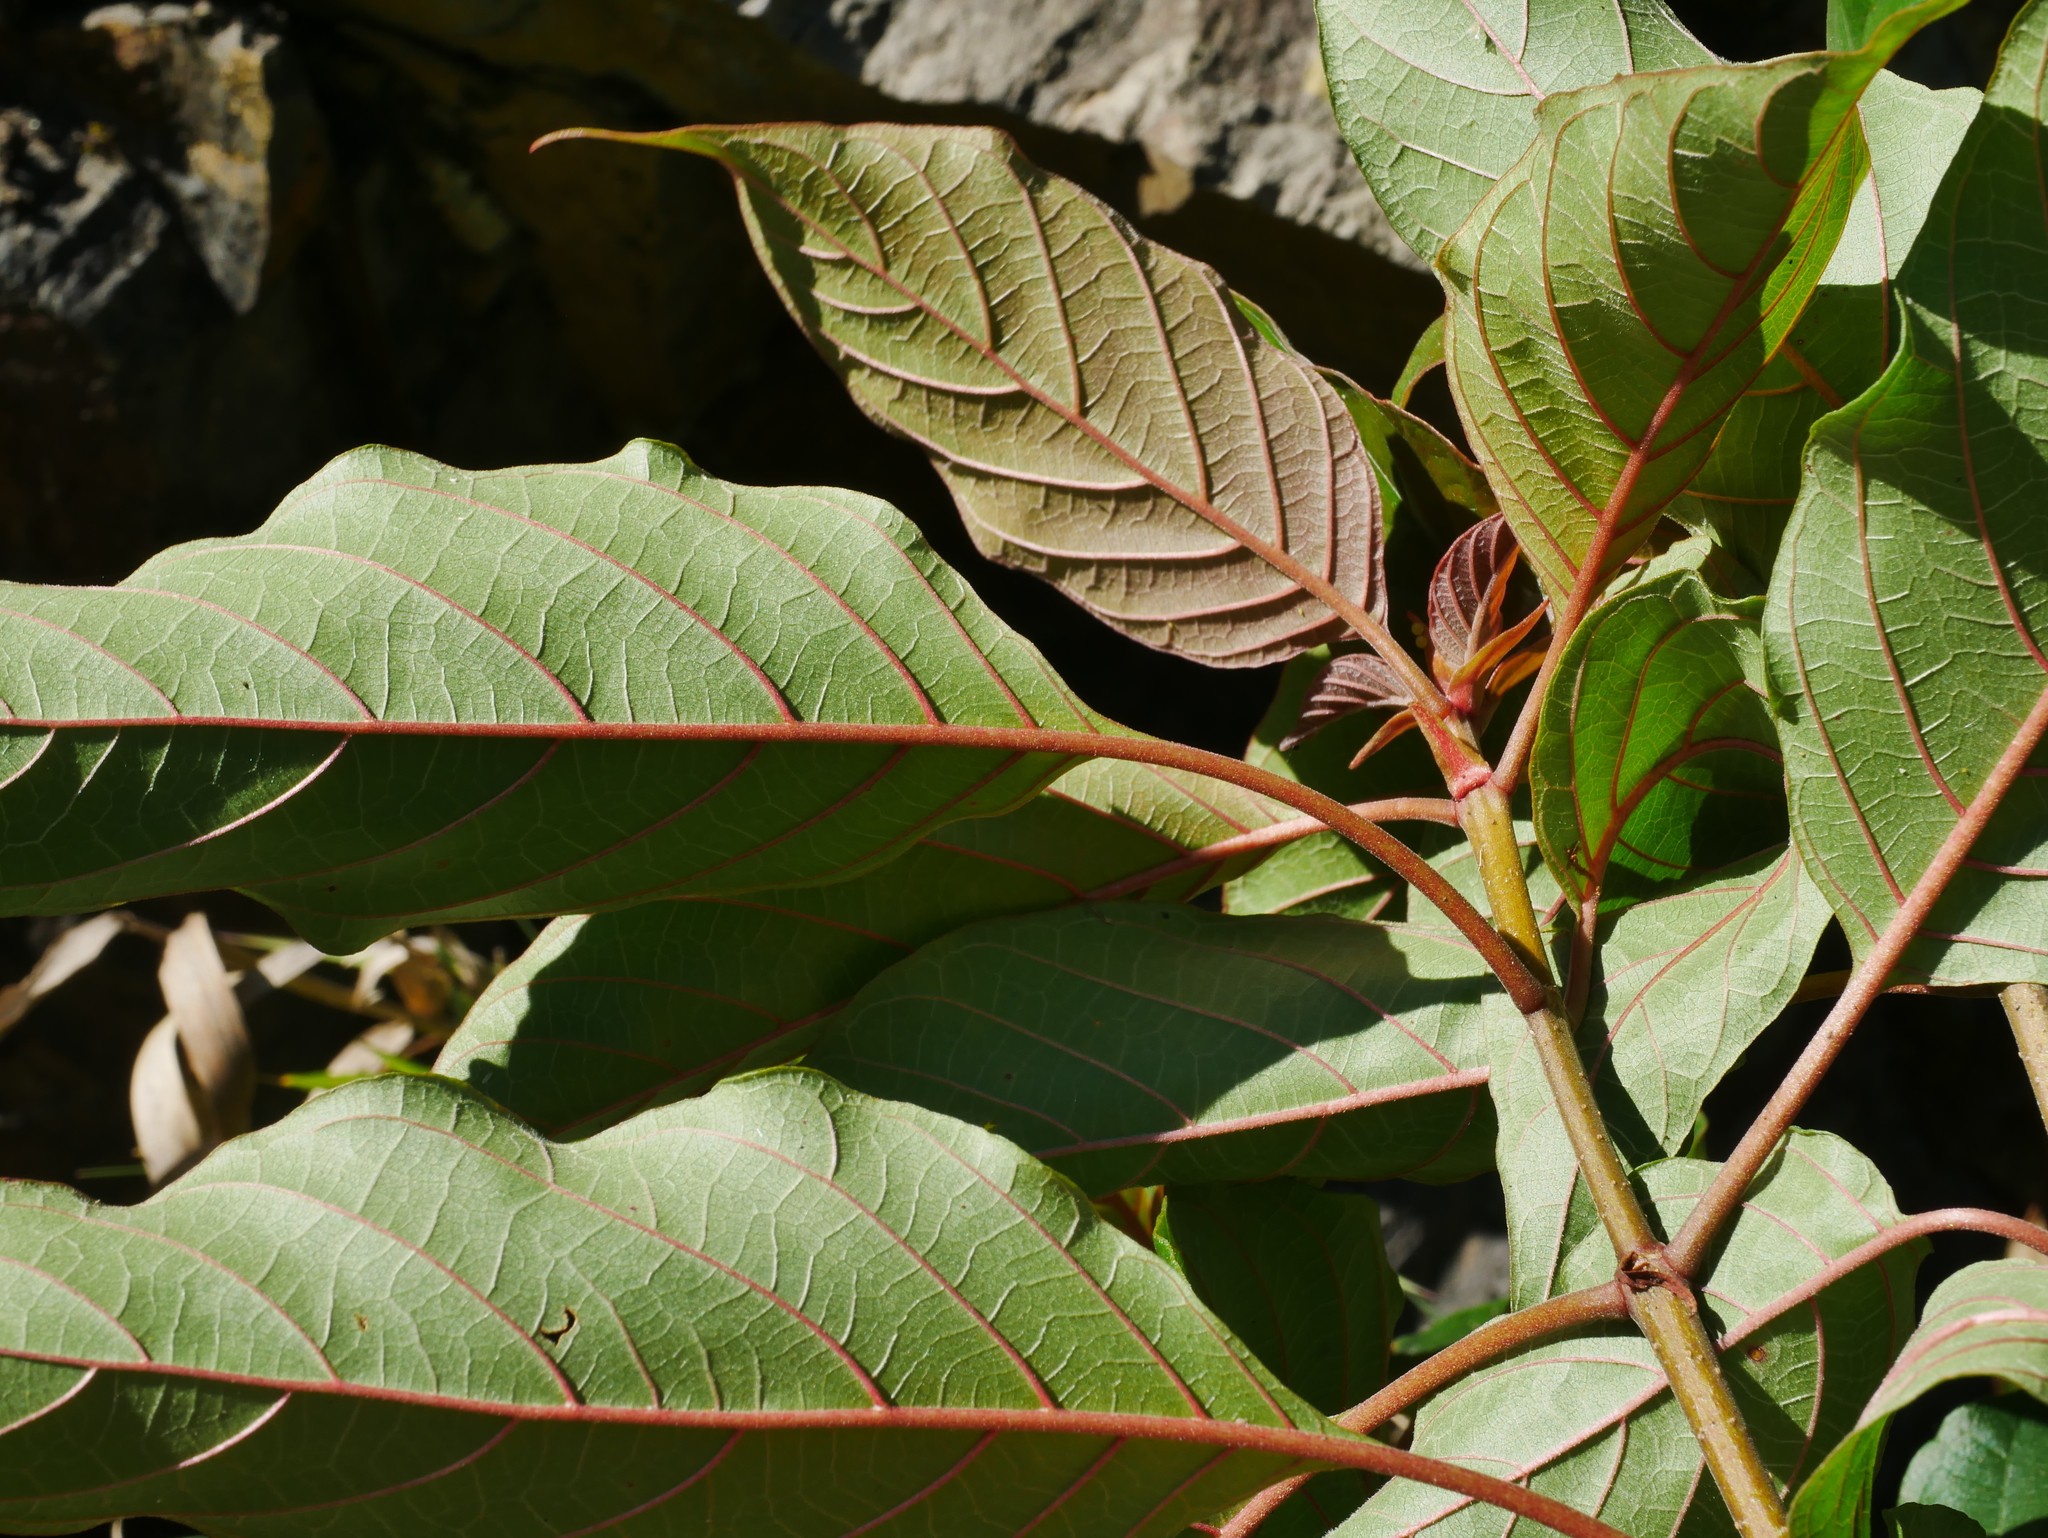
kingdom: Plantae
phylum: Tracheophyta
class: Magnoliopsida
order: Gentianales
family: Rubiaceae
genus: Adina
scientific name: Adina racemosa
